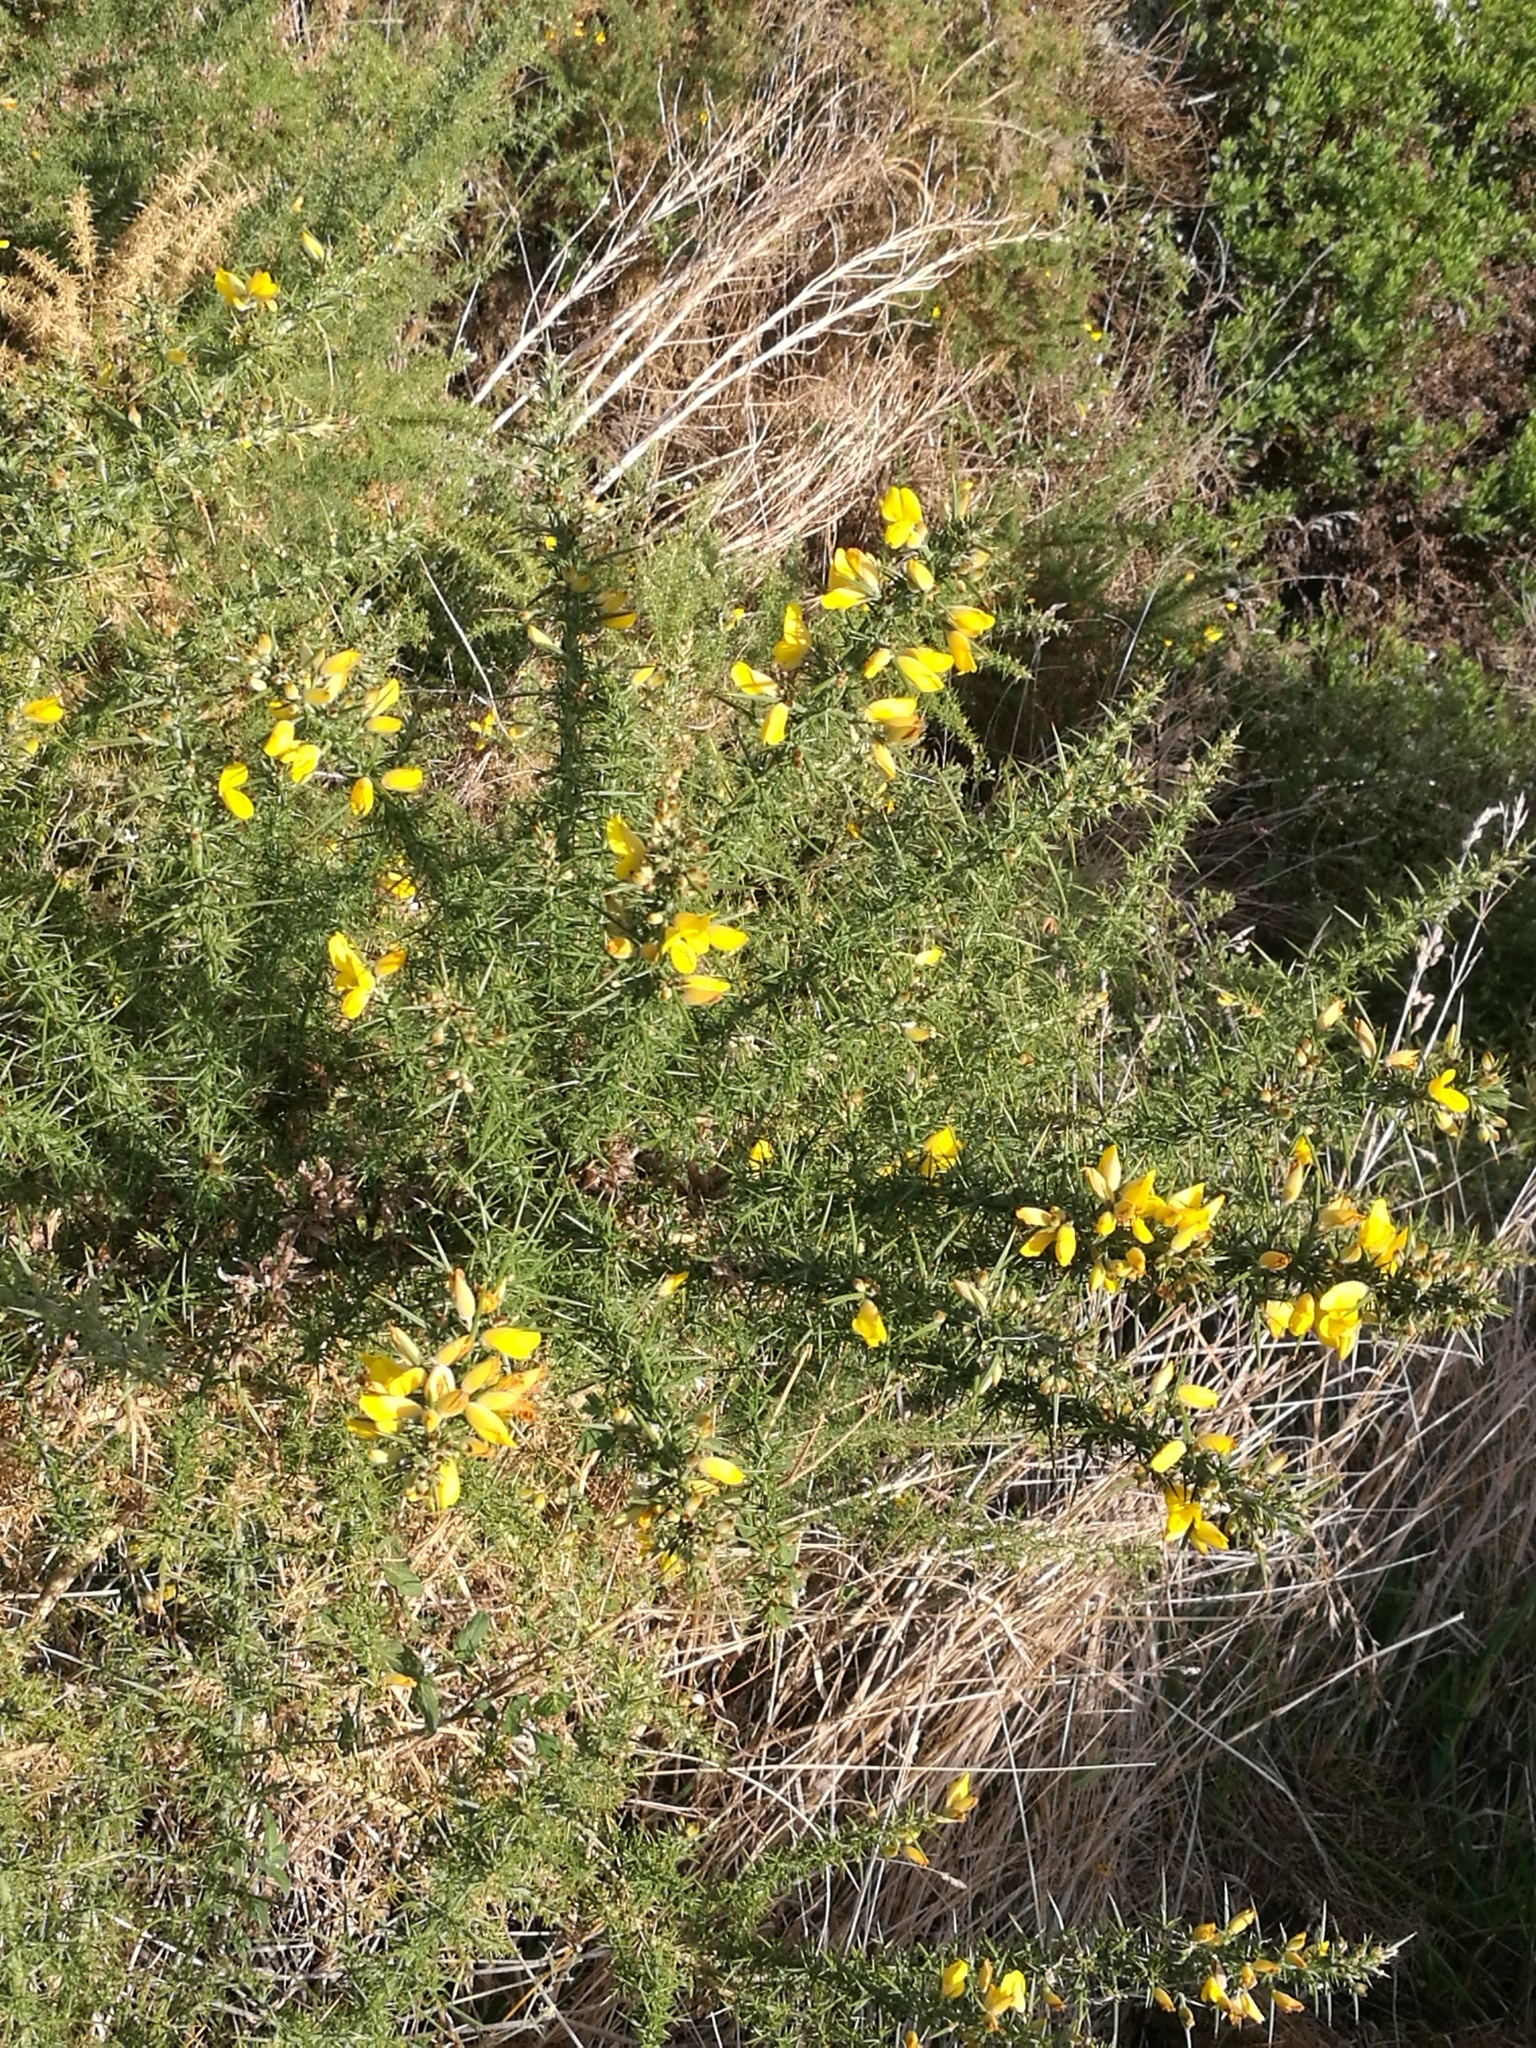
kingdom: Plantae
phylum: Tracheophyta
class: Magnoliopsida
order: Fabales
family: Fabaceae
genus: Ulex
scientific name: Ulex europaeus
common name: Common gorse
